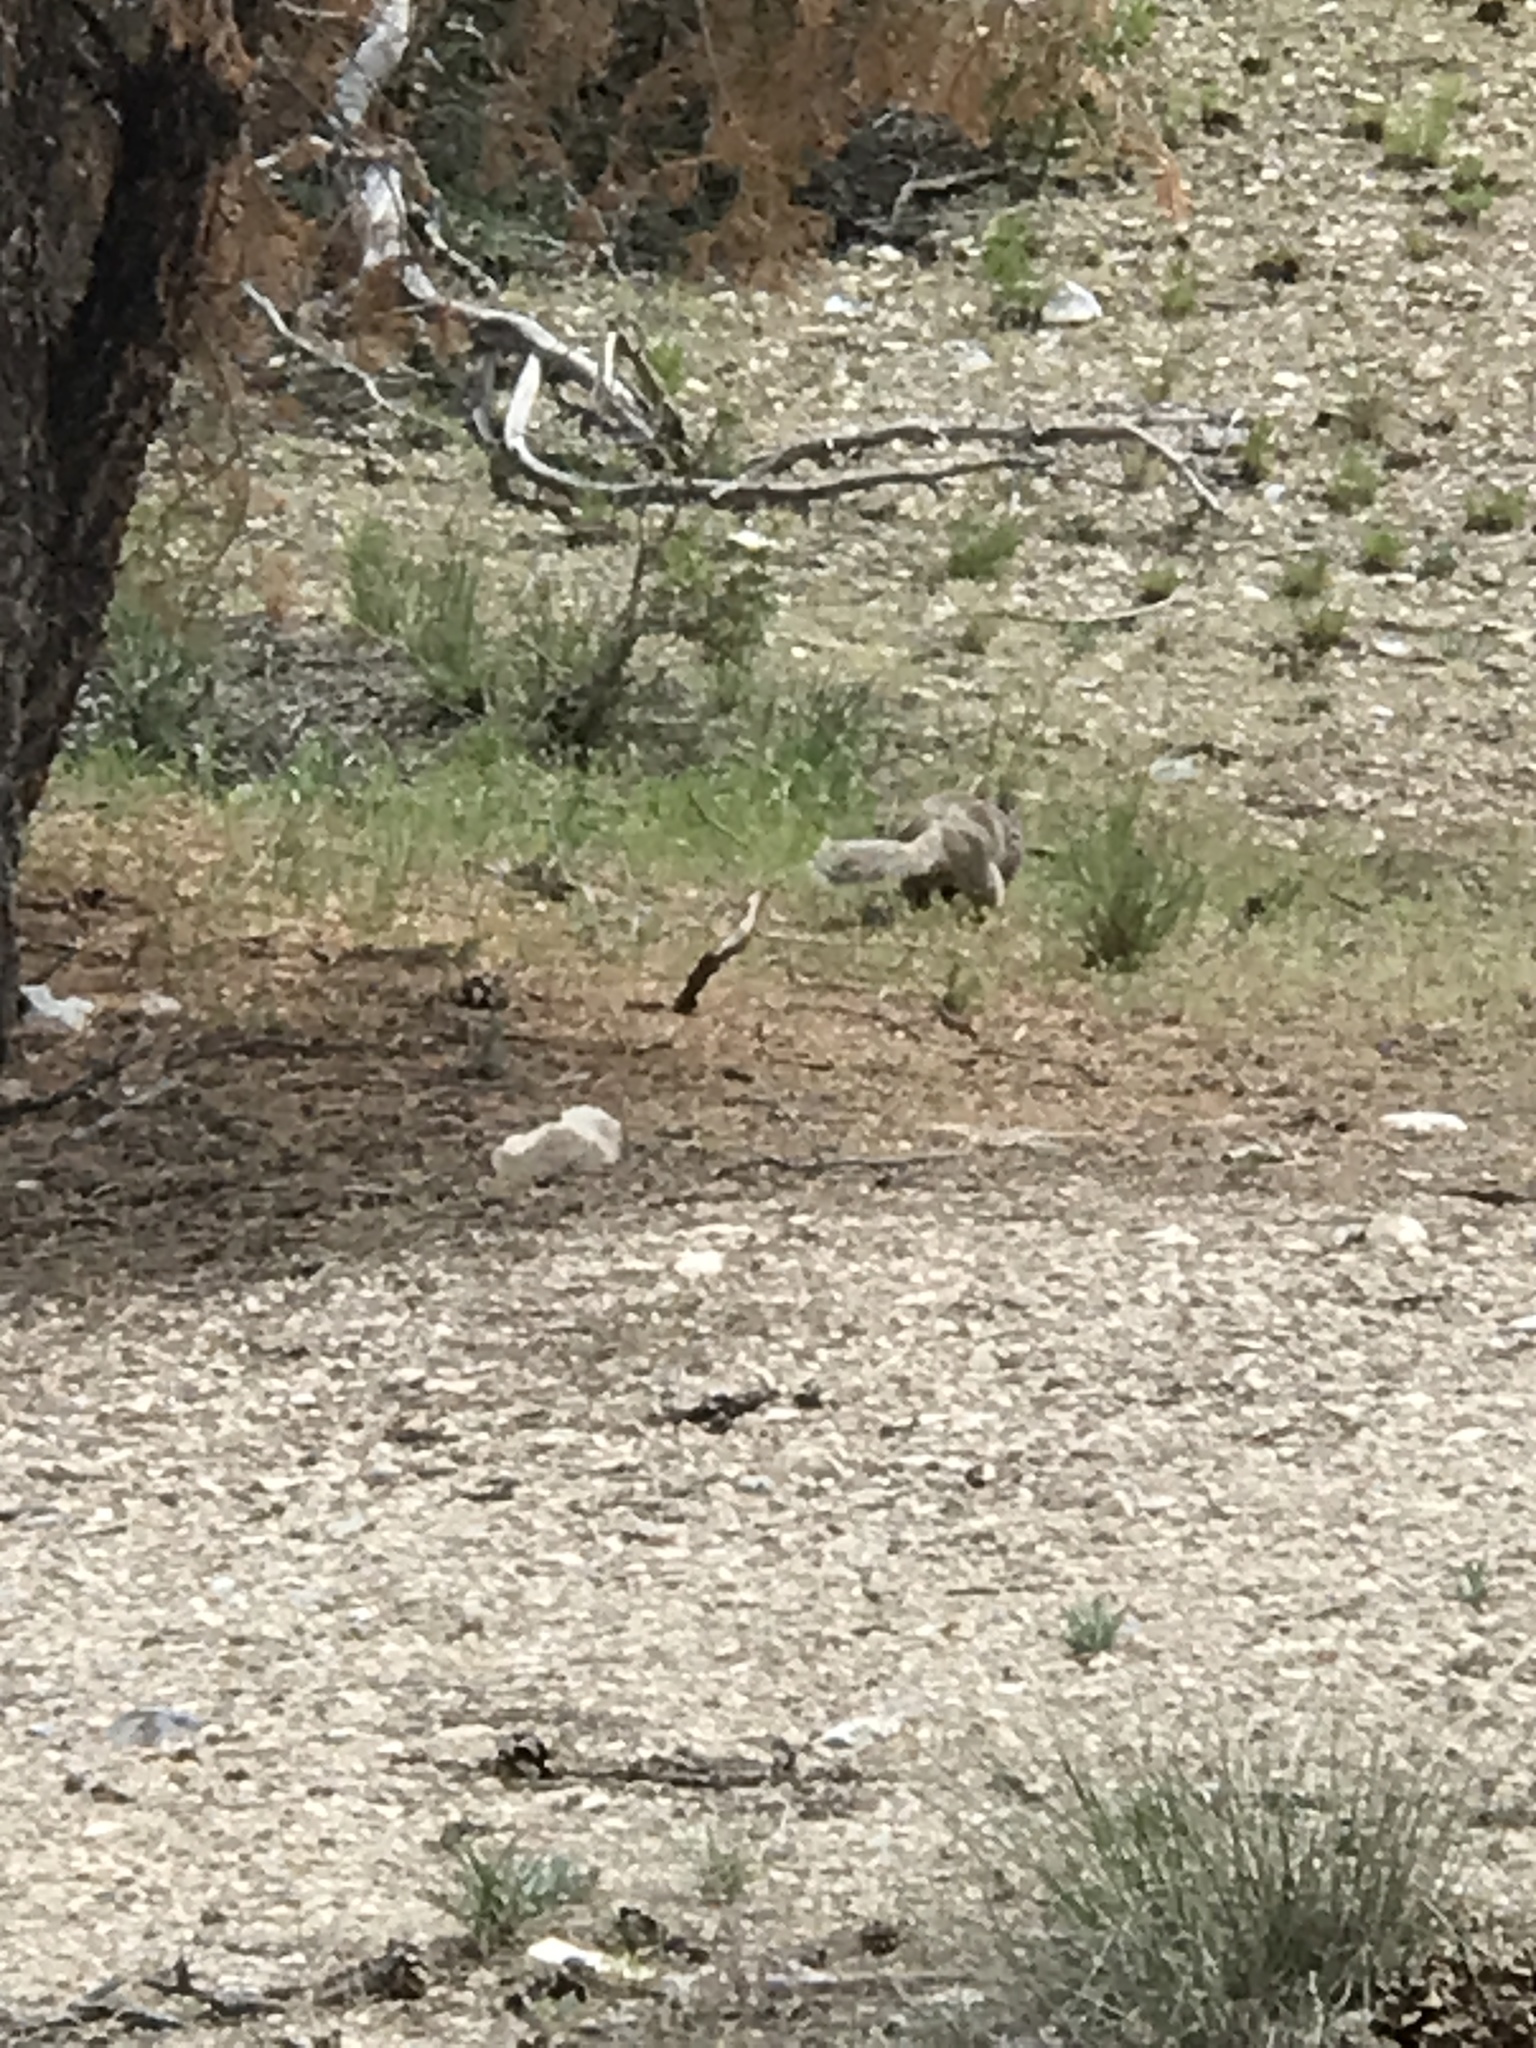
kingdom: Animalia
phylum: Chordata
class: Mammalia
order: Rodentia
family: Sciuridae
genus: Otospermophilus
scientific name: Otospermophilus variegatus
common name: Rock squirrel
